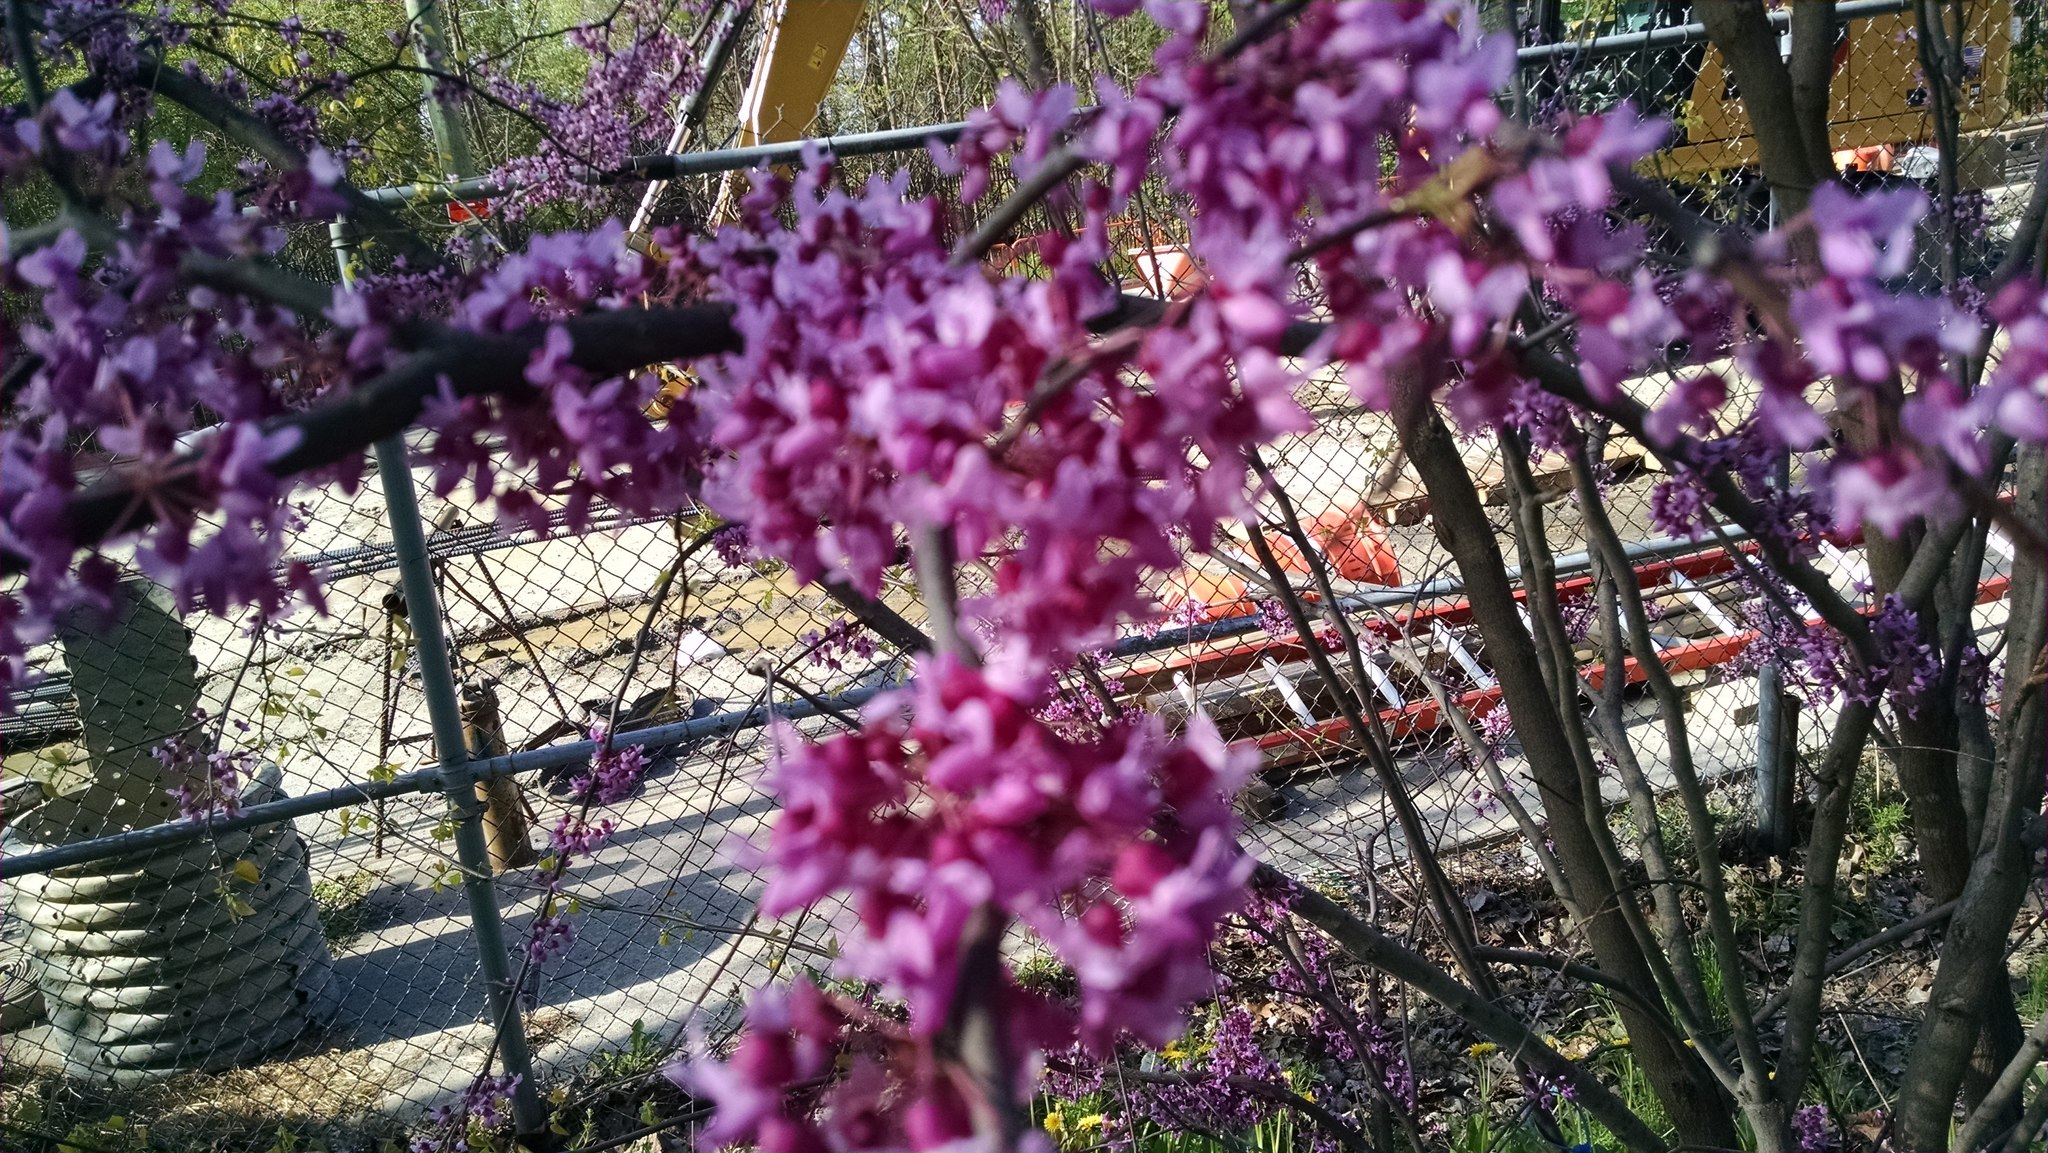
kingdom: Plantae
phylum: Tracheophyta
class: Magnoliopsida
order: Fabales
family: Fabaceae
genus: Cercis
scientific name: Cercis canadensis
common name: Eastern redbud
